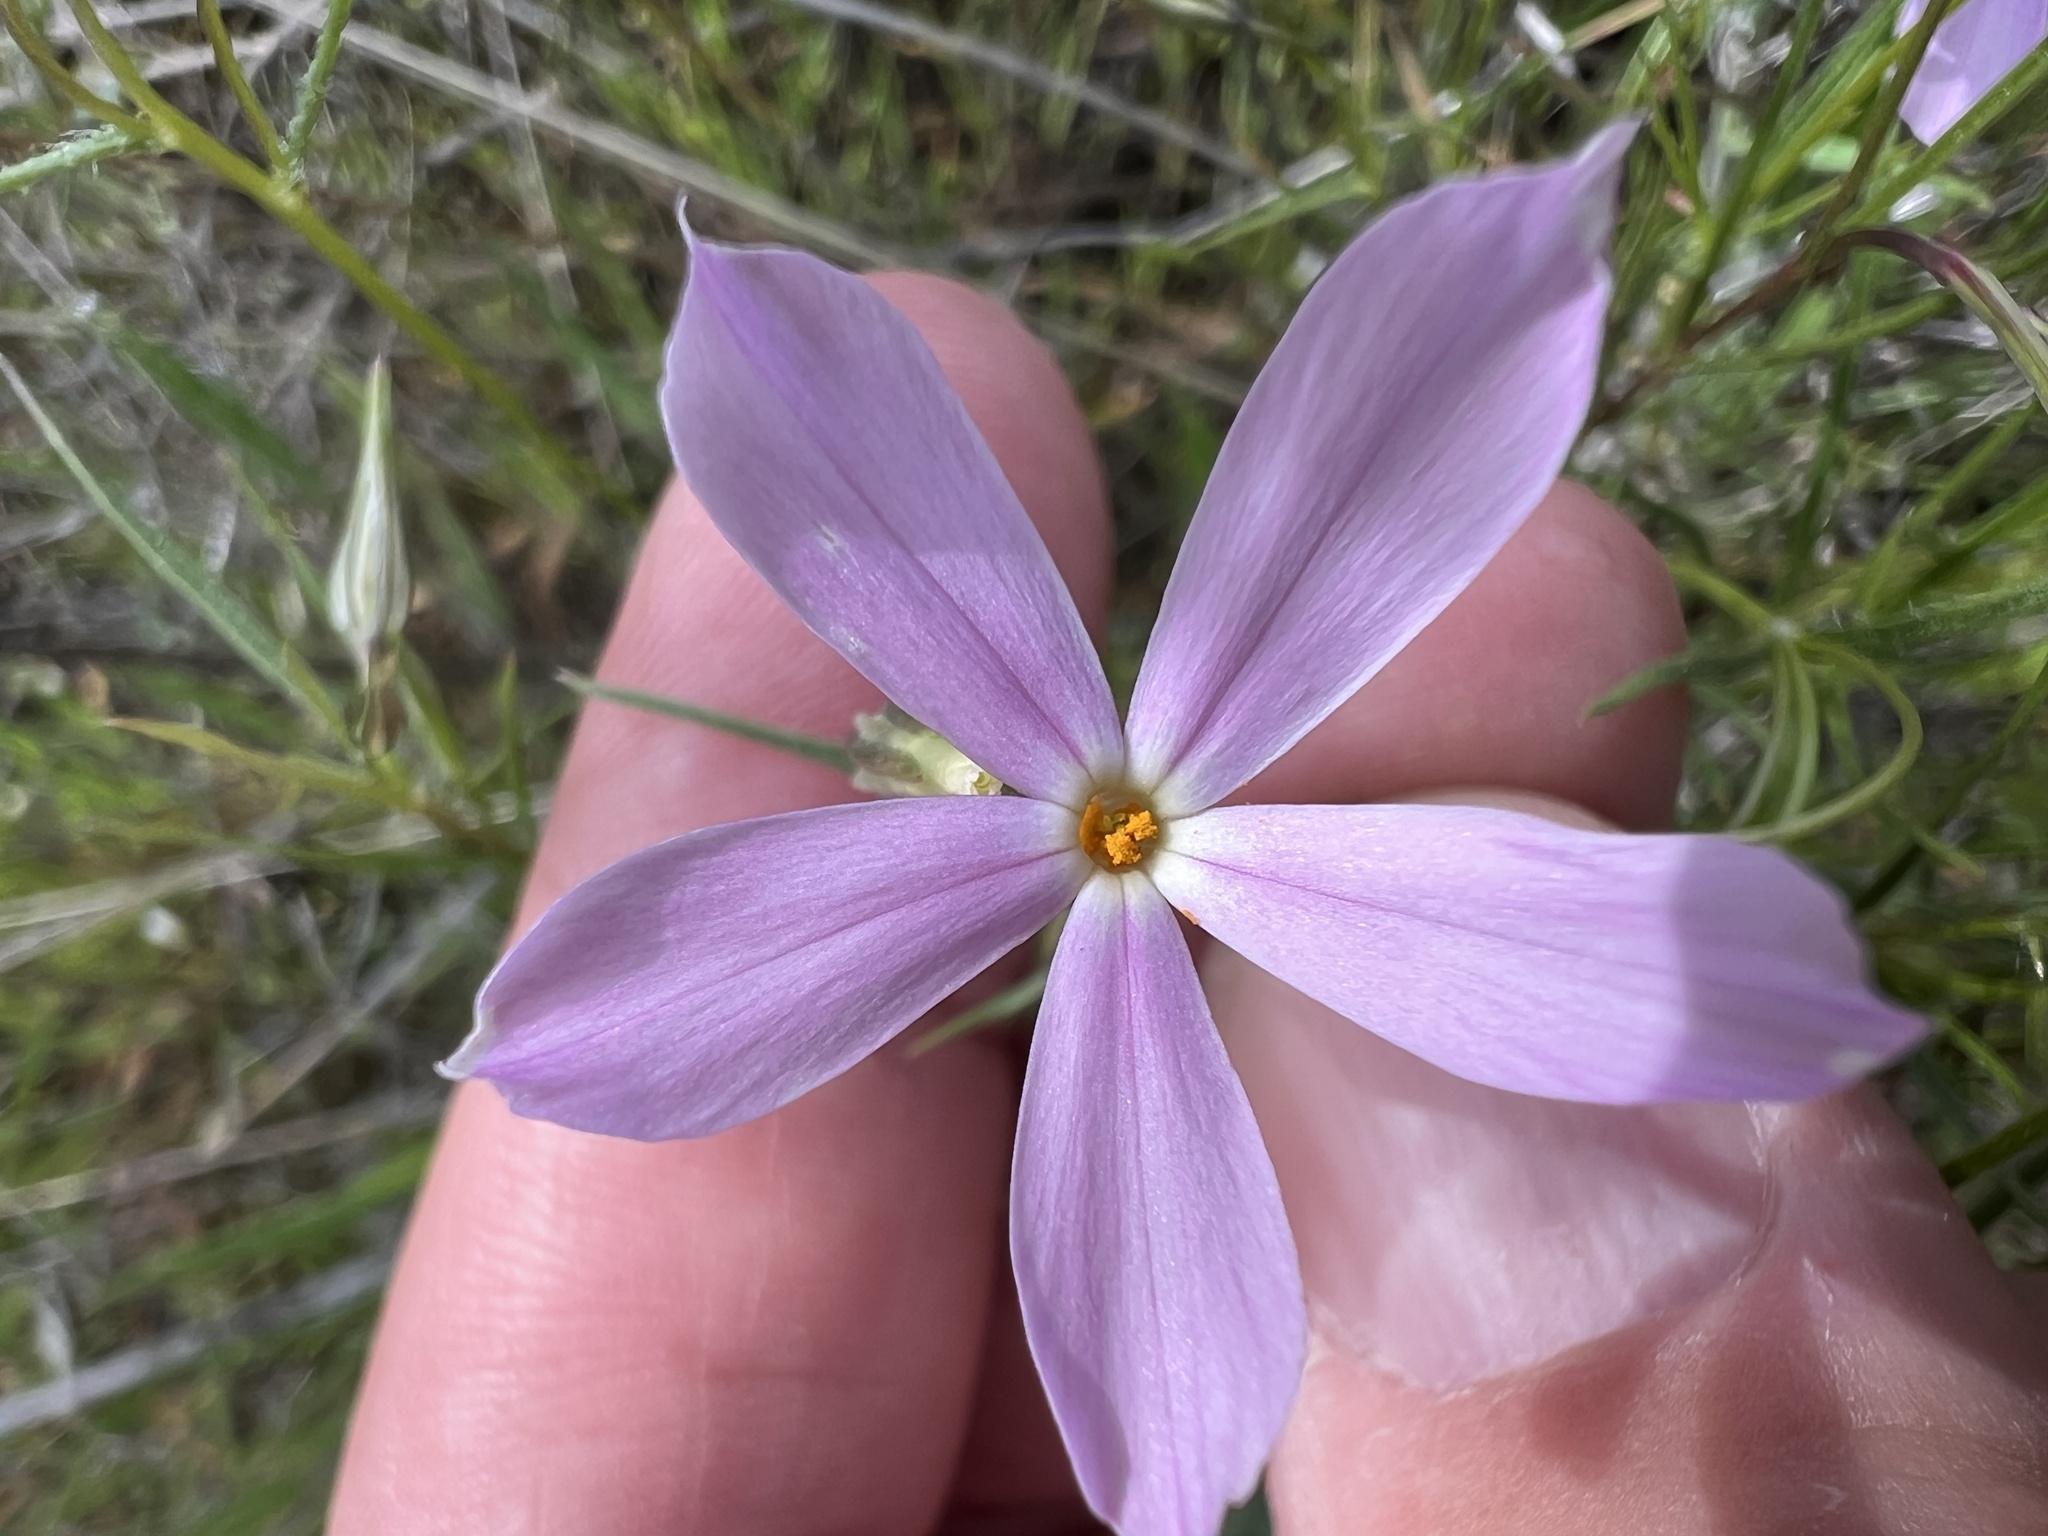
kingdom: Plantae
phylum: Tracheophyta
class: Magnoliopsida
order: Ericales
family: Polemoniaceae
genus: Phlox
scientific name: Phlox longifolia
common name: Longleaf phlox
